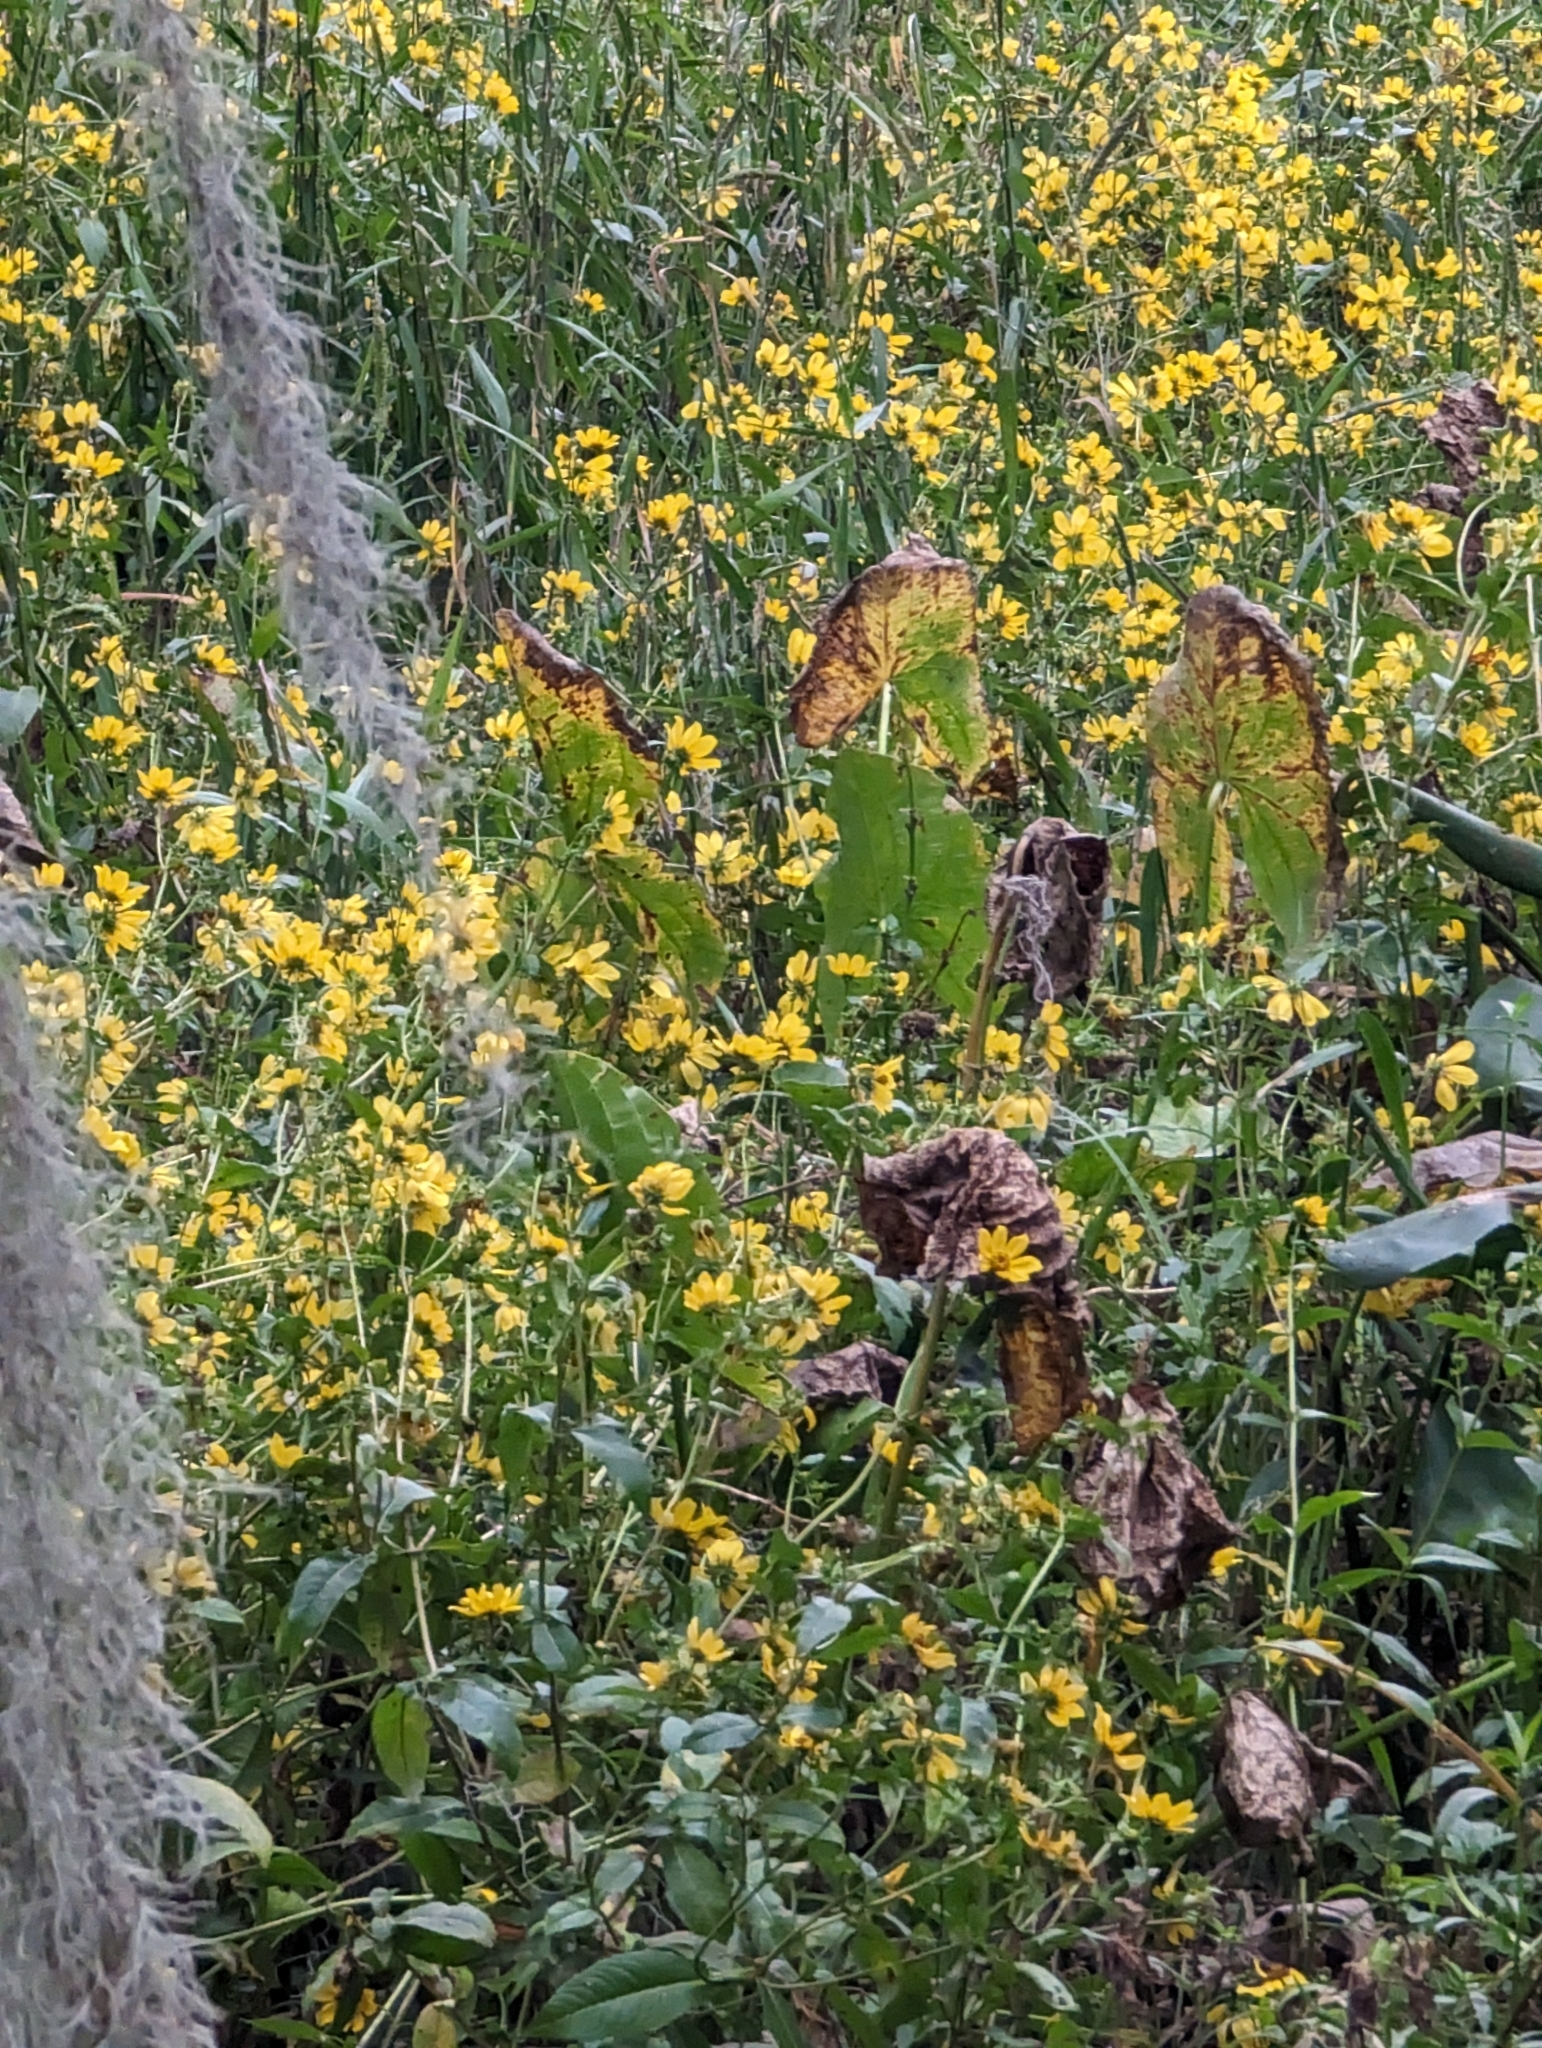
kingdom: Plantae
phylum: Tracheophyta
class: Magnoliopsida
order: Asterales
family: Asteraceae
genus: Bidens
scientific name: Bidens laevis
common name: Larger bur-marigold
